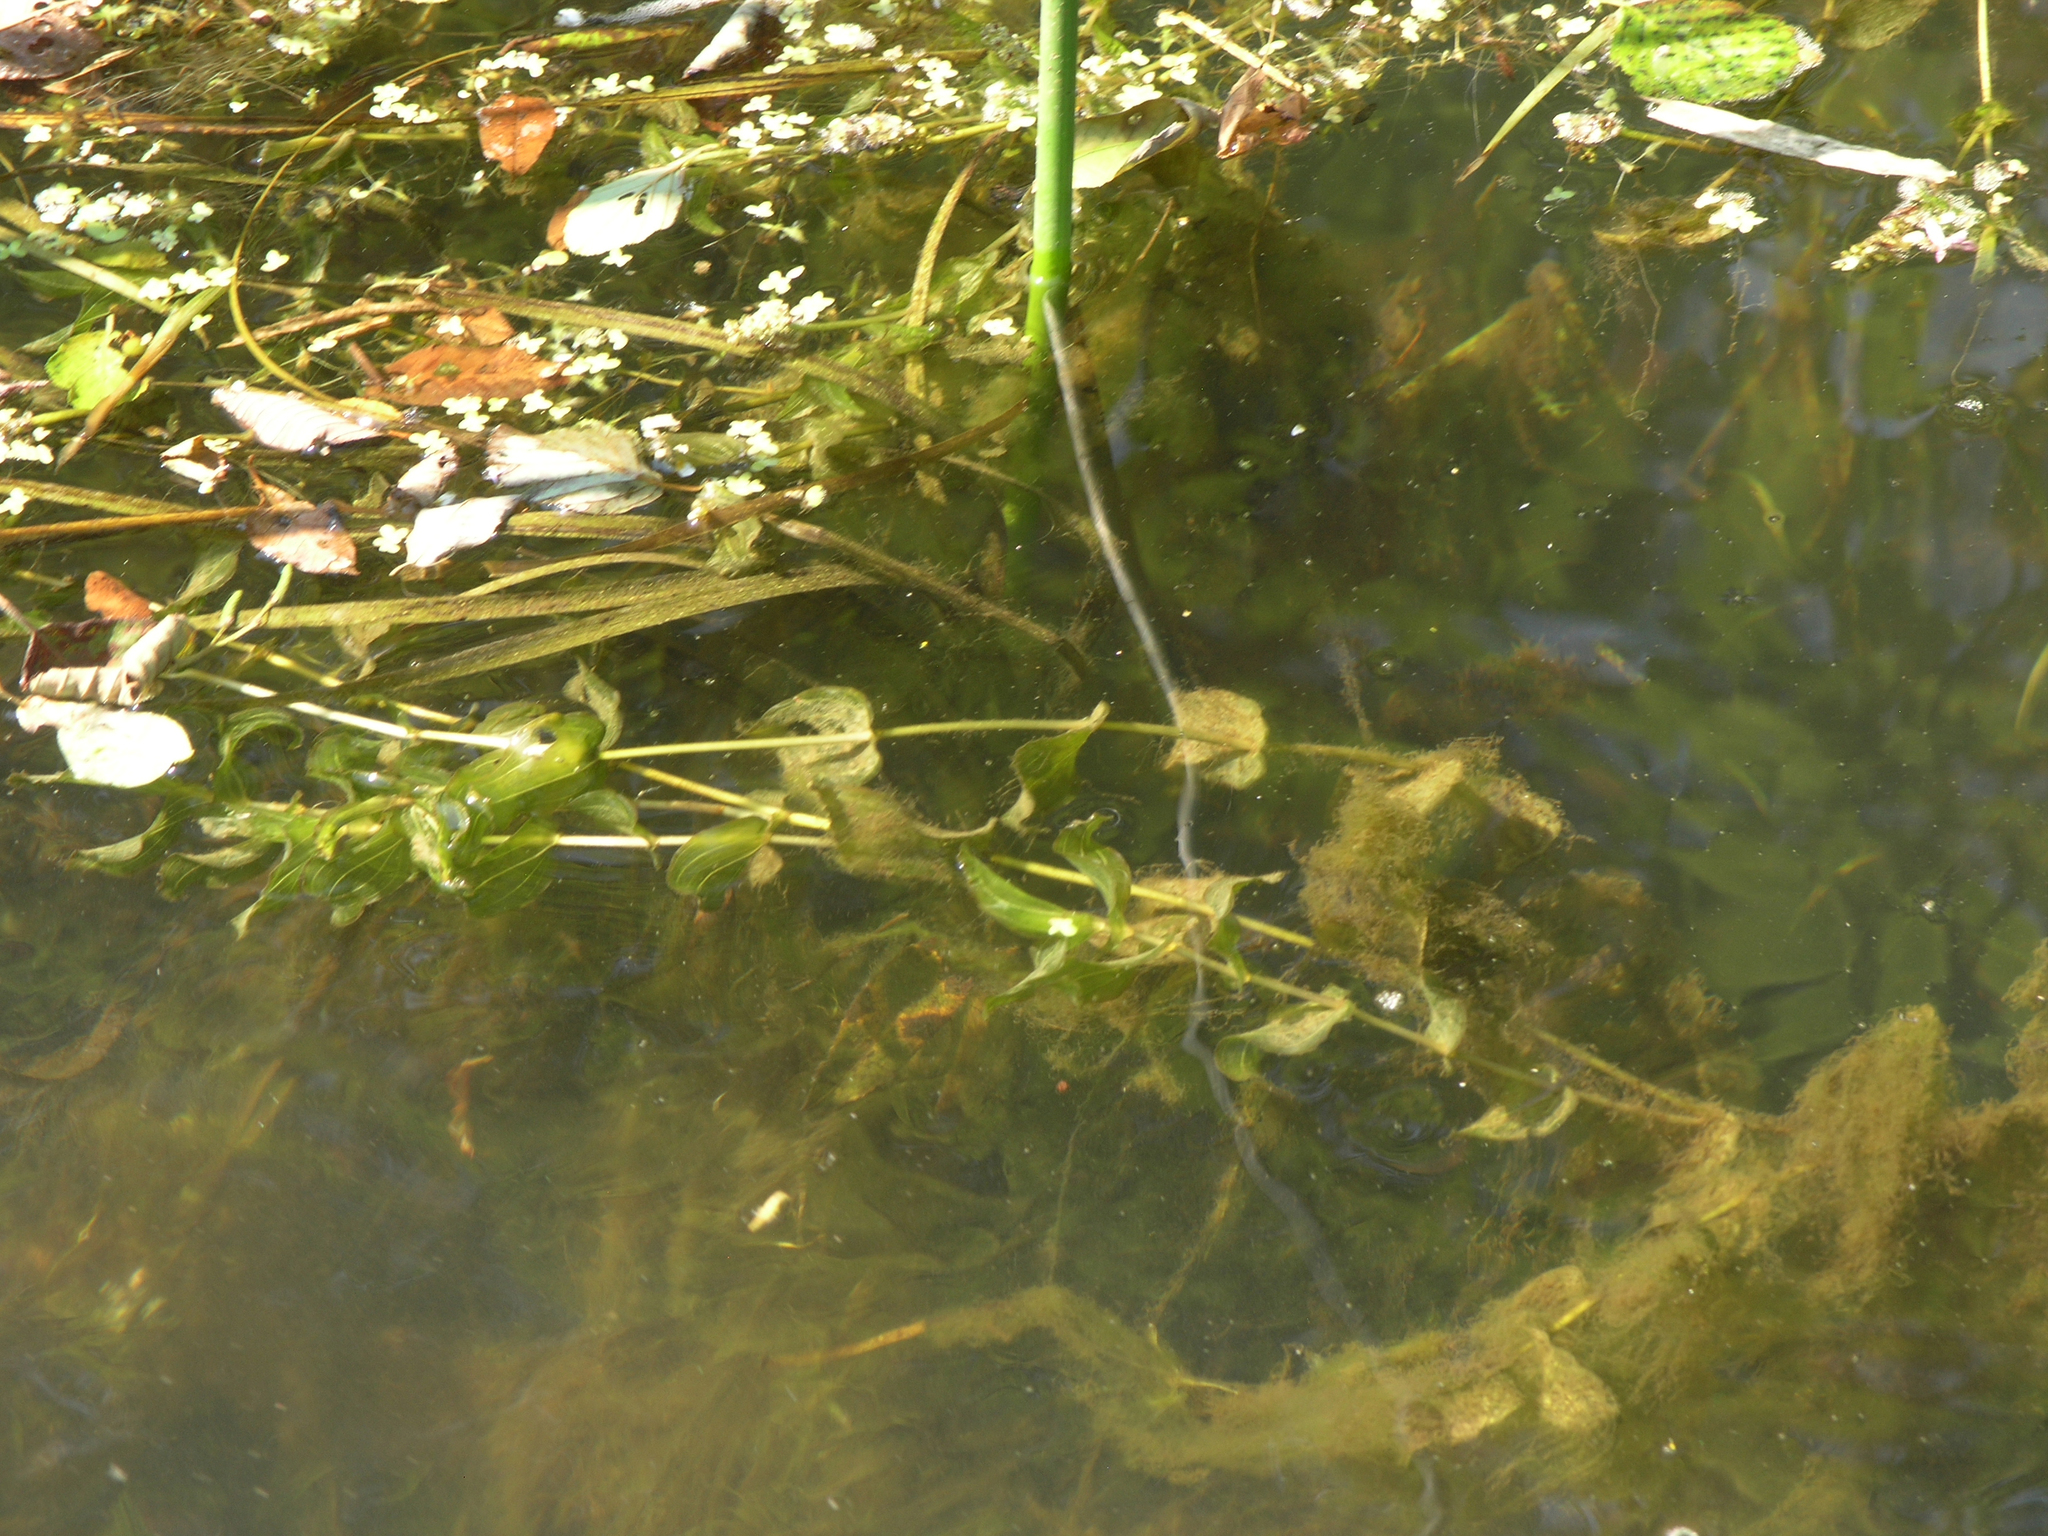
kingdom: Plantae
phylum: Tracheophyta
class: Liliopsida
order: Alismatales
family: Potamogetonaceae
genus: Potamogeton
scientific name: Potamogeton perfoliatus
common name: Perfoliate pondweed
